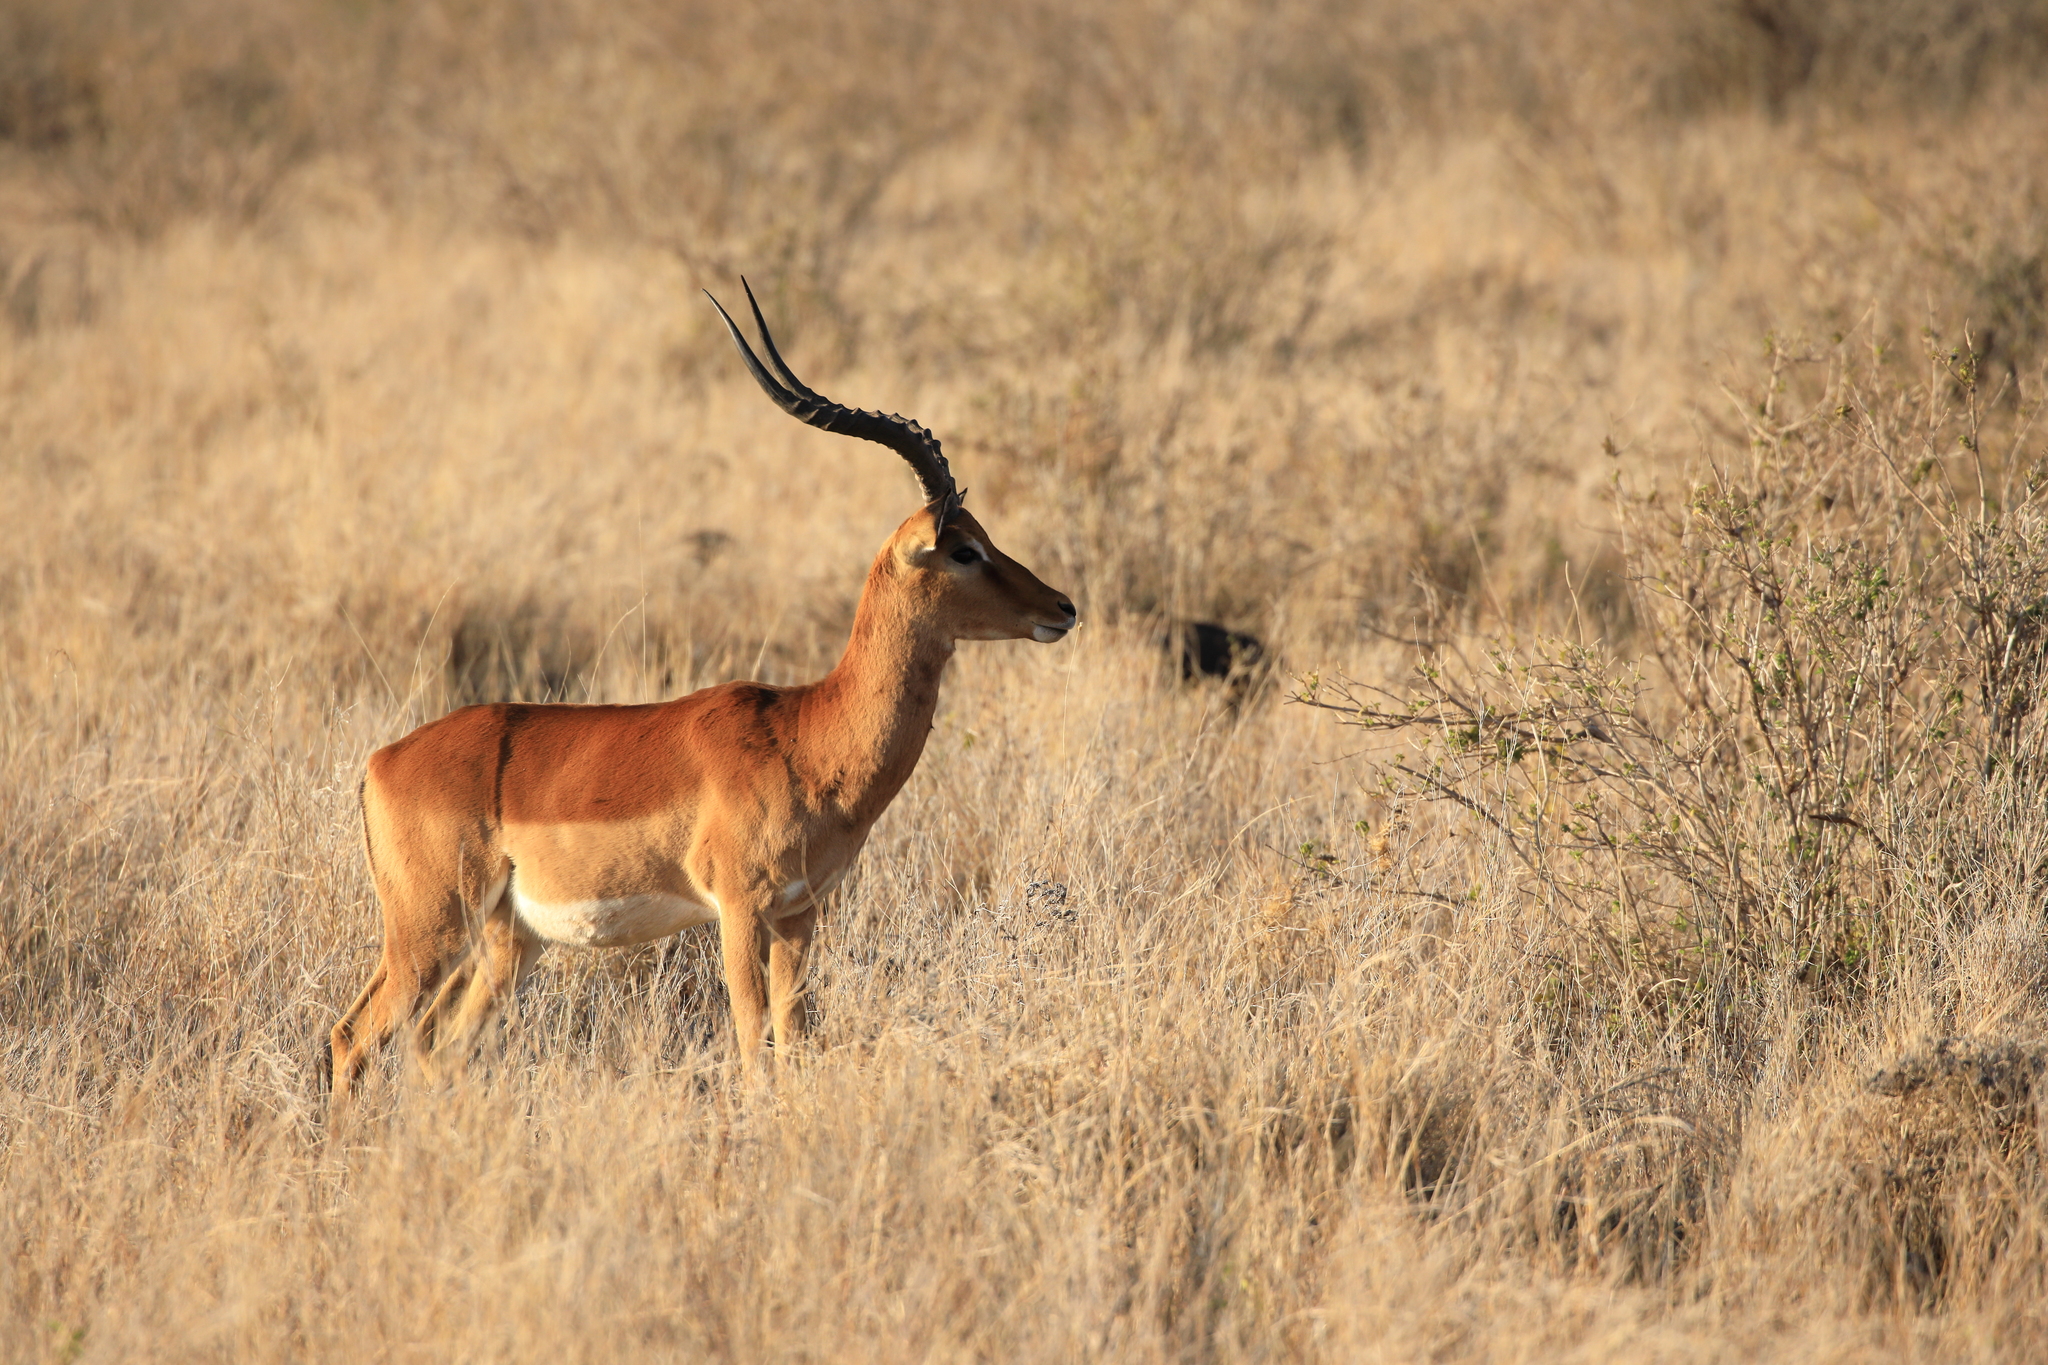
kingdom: Animalia
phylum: Chordata
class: Mammalia
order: Artiodactyla
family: Bovidae
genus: Aepyceros
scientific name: Aepyceros melampus
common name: Impala
